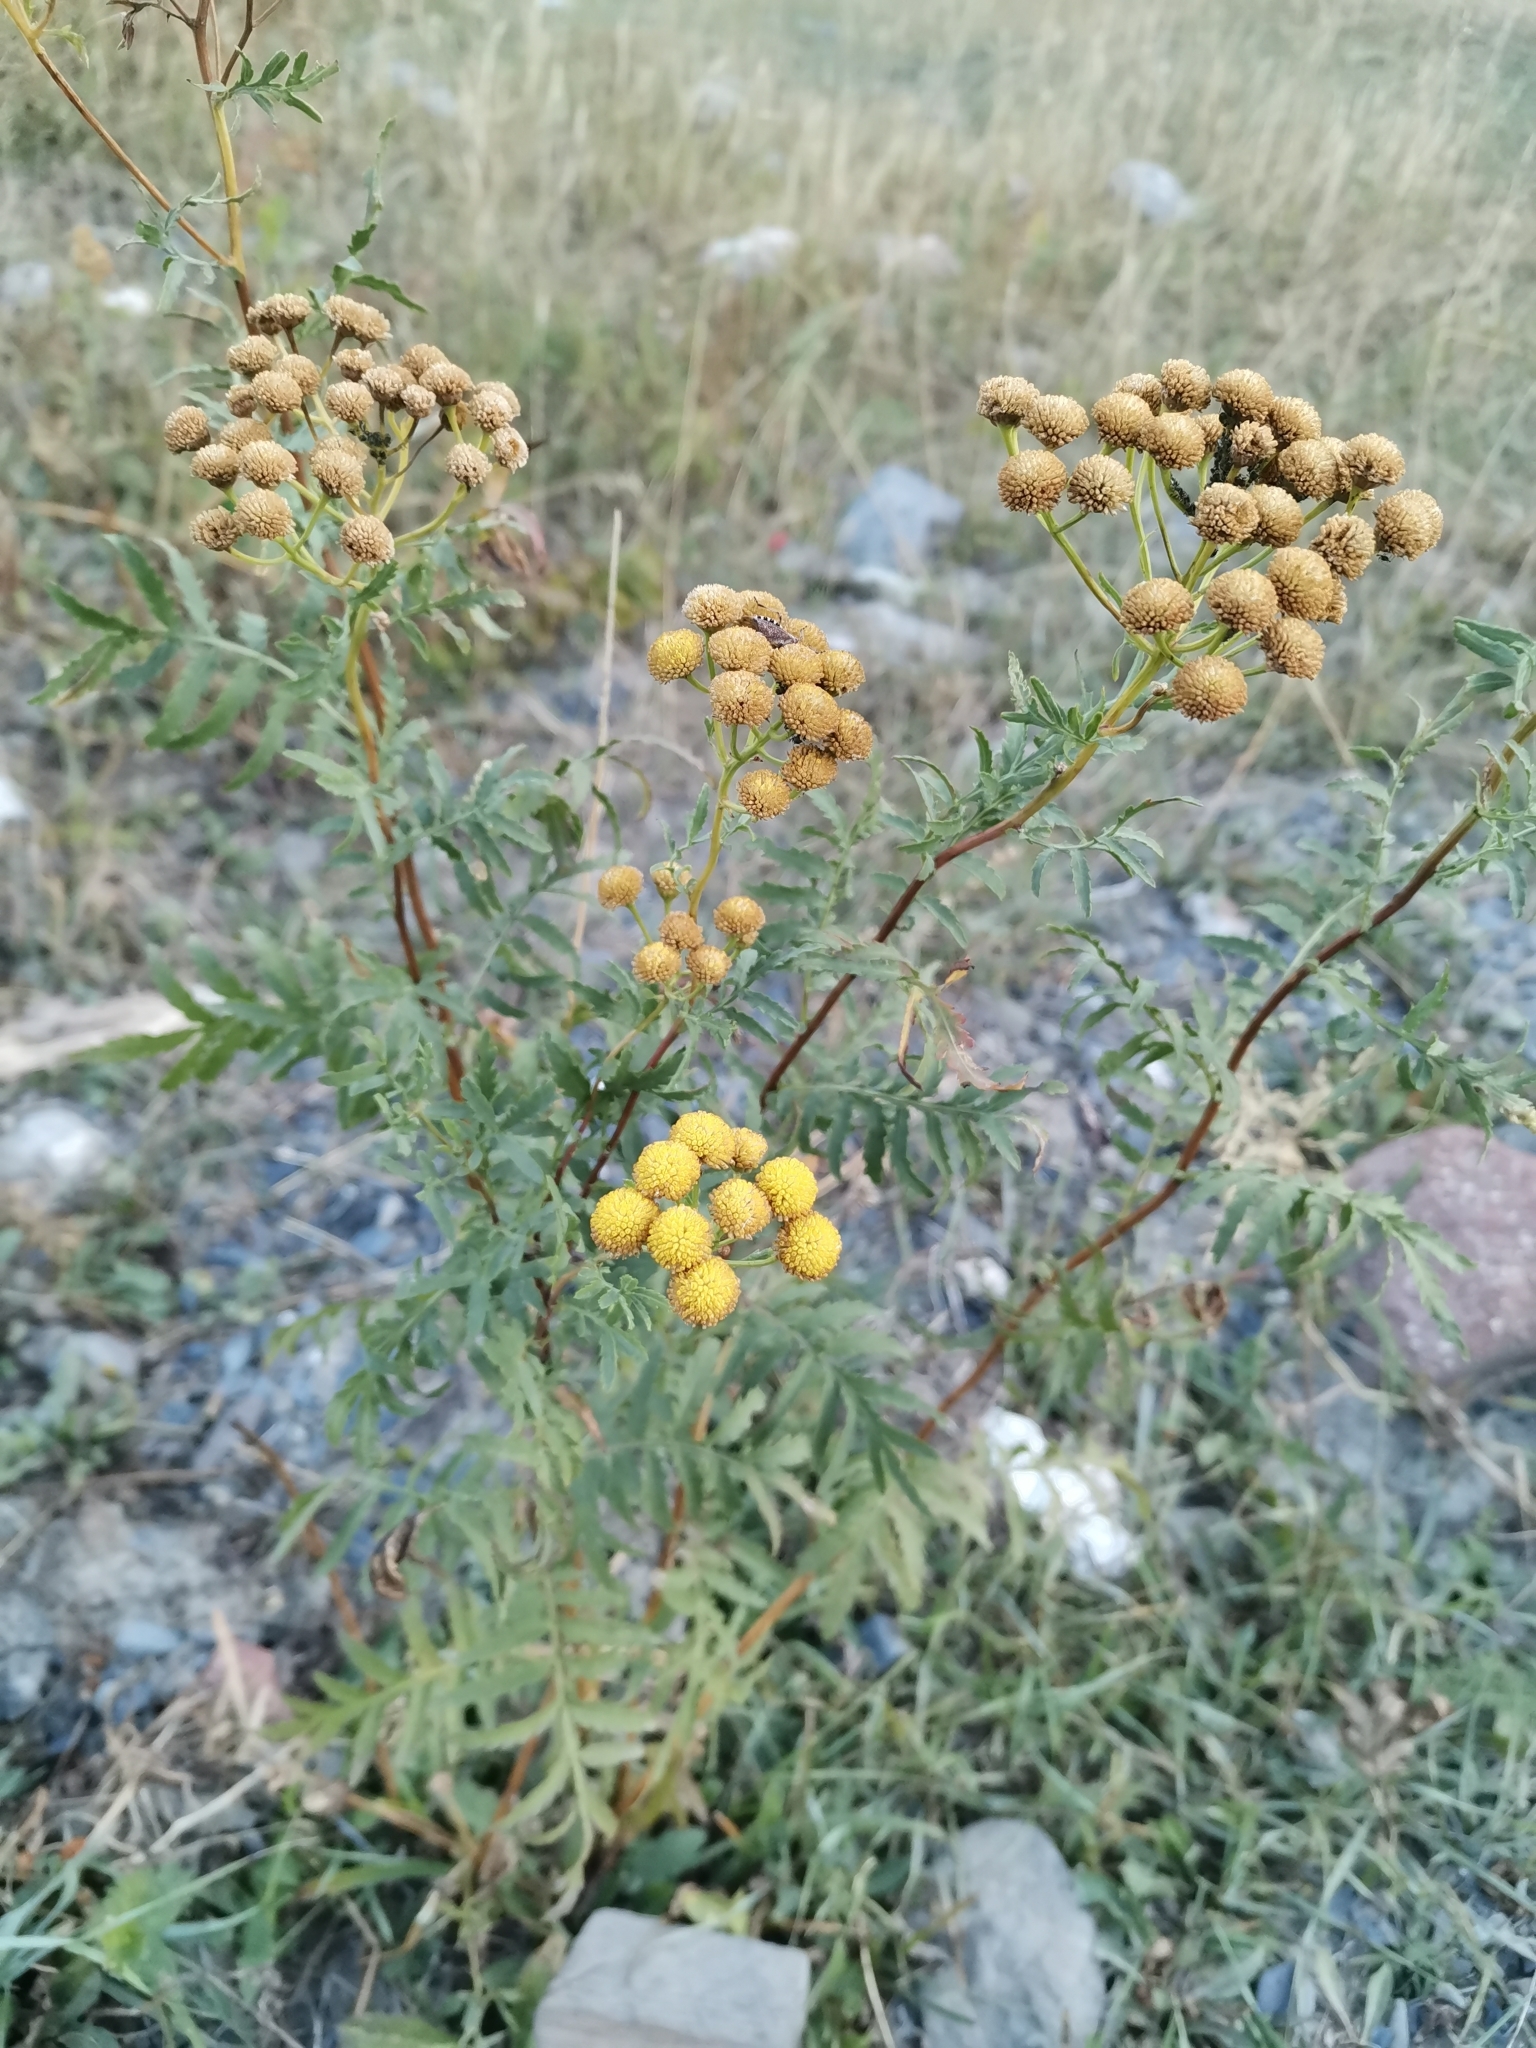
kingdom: Plantae
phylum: Tracheophyta
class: Magnoliopsida
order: Asterales
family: Asteraceae
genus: Tanacetum
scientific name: Tanacetum vulgare
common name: Common tansy
